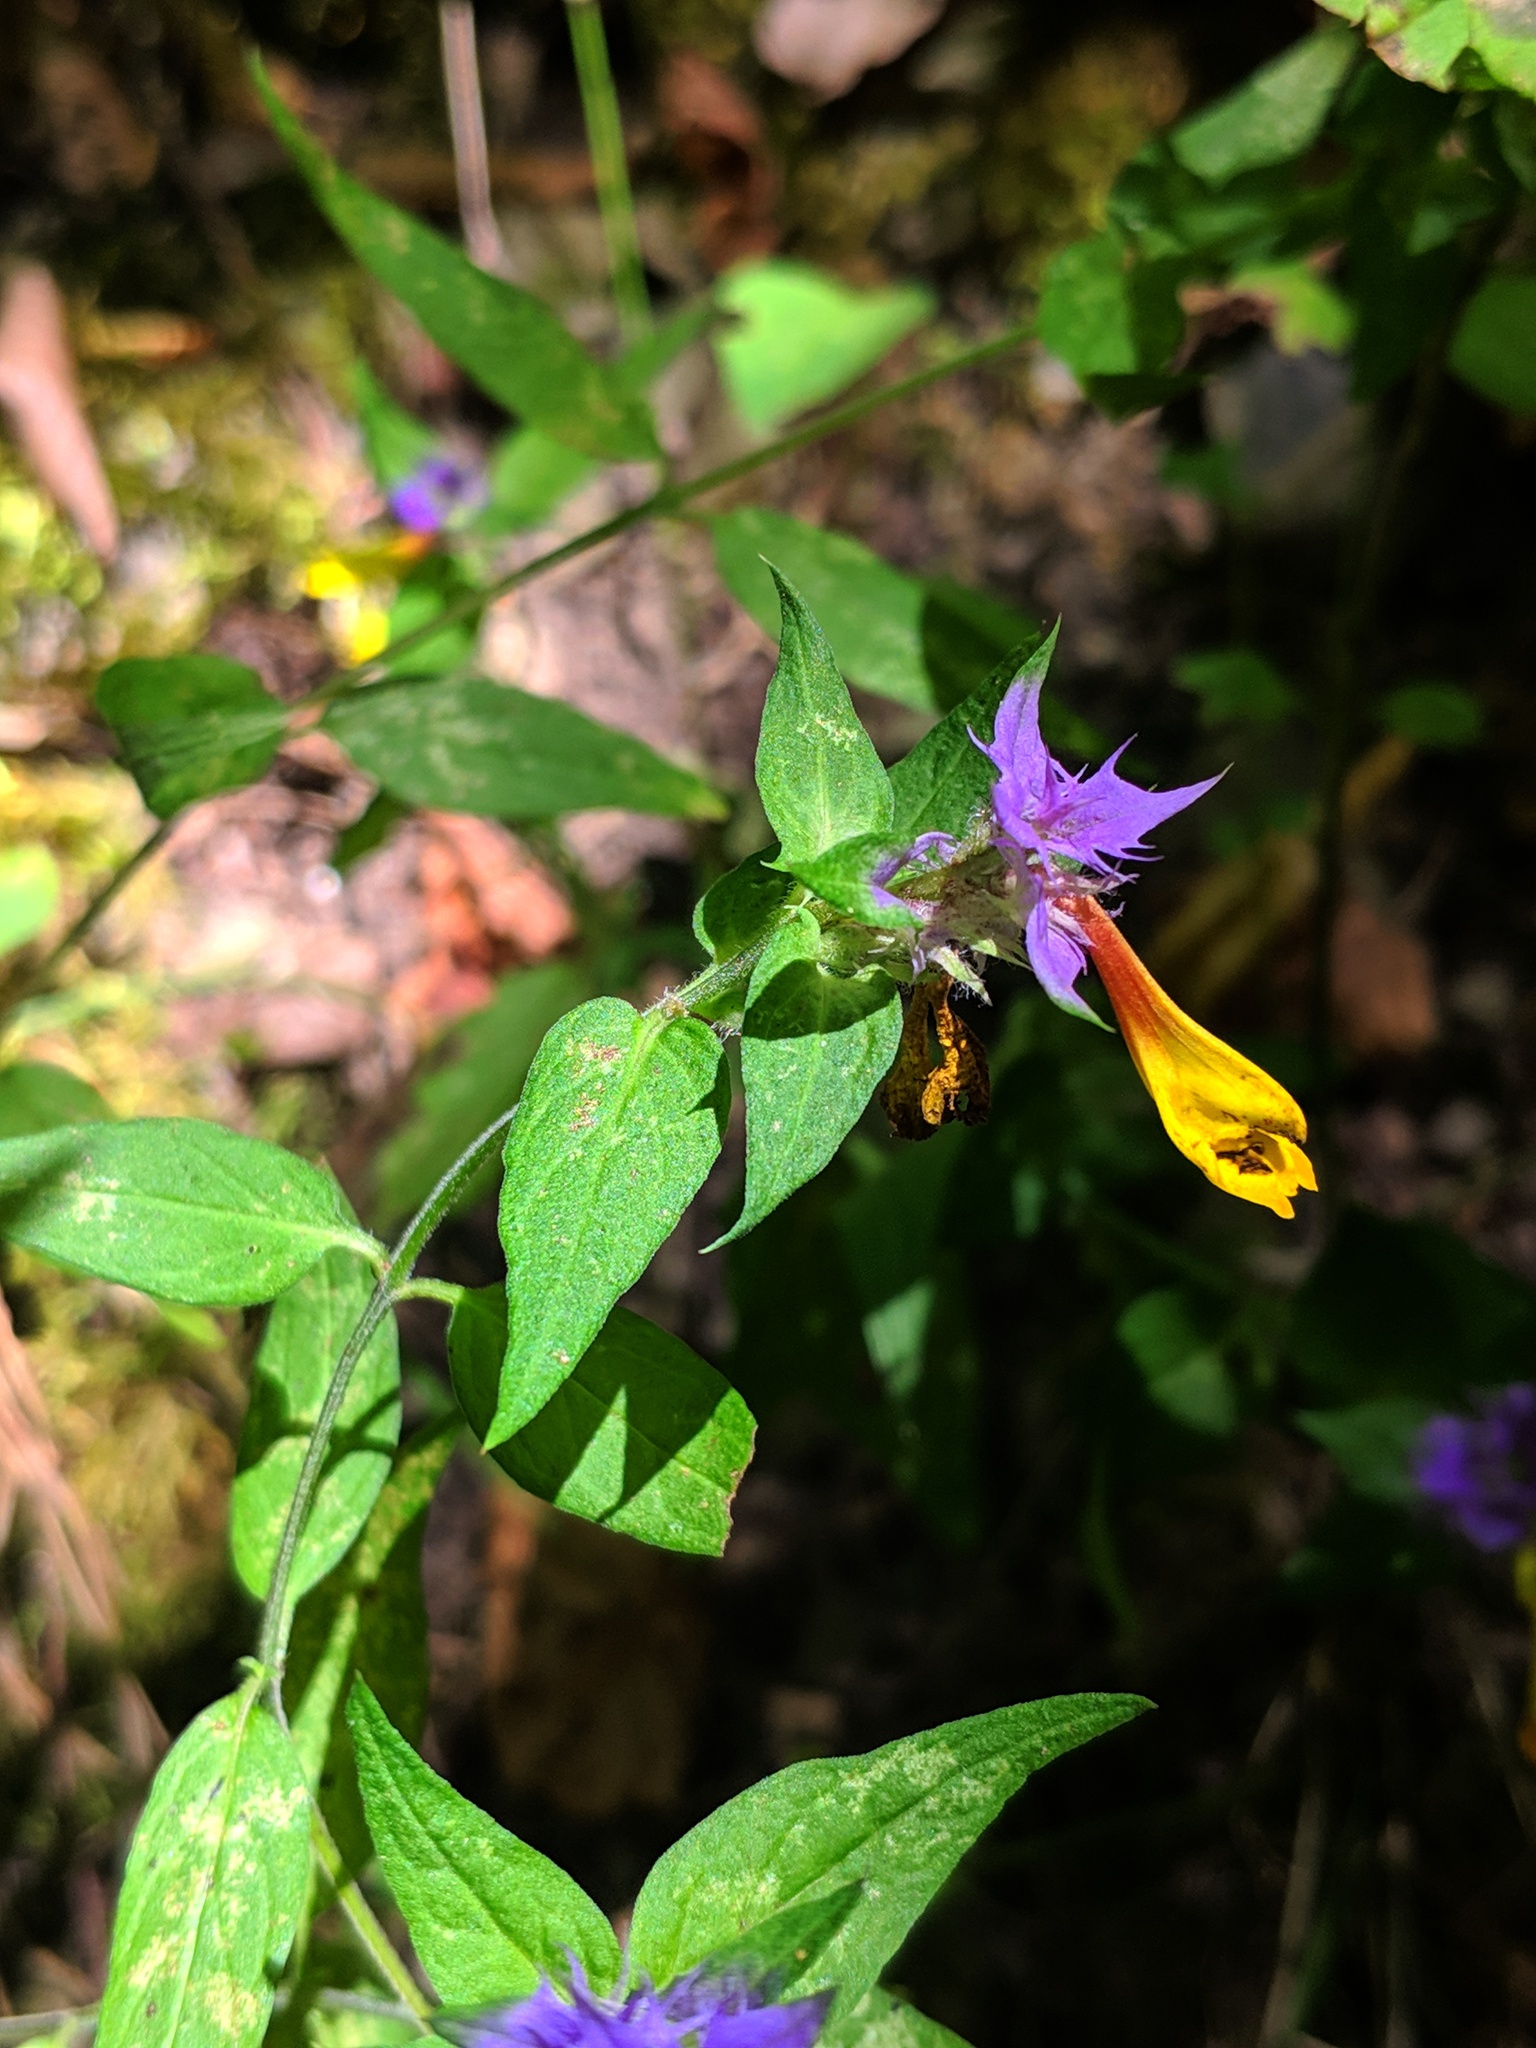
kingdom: Plantae
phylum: Tracheophyta
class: Magnoliopsida
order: Lamiales
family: Orobanchaceae
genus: Melampyrum
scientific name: Melampyrum nemorosum
